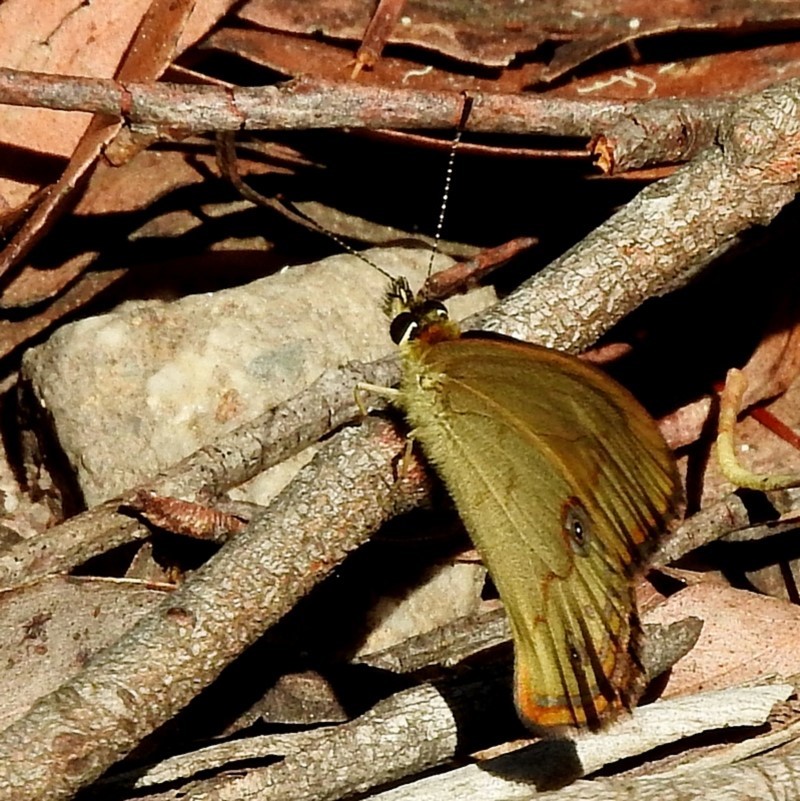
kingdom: Animalia
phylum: Arthropoda
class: Insecta
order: Lepidoptera
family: Nymphalidae
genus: Hypocysta
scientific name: Hypocysta metirius
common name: Brown ringlet
